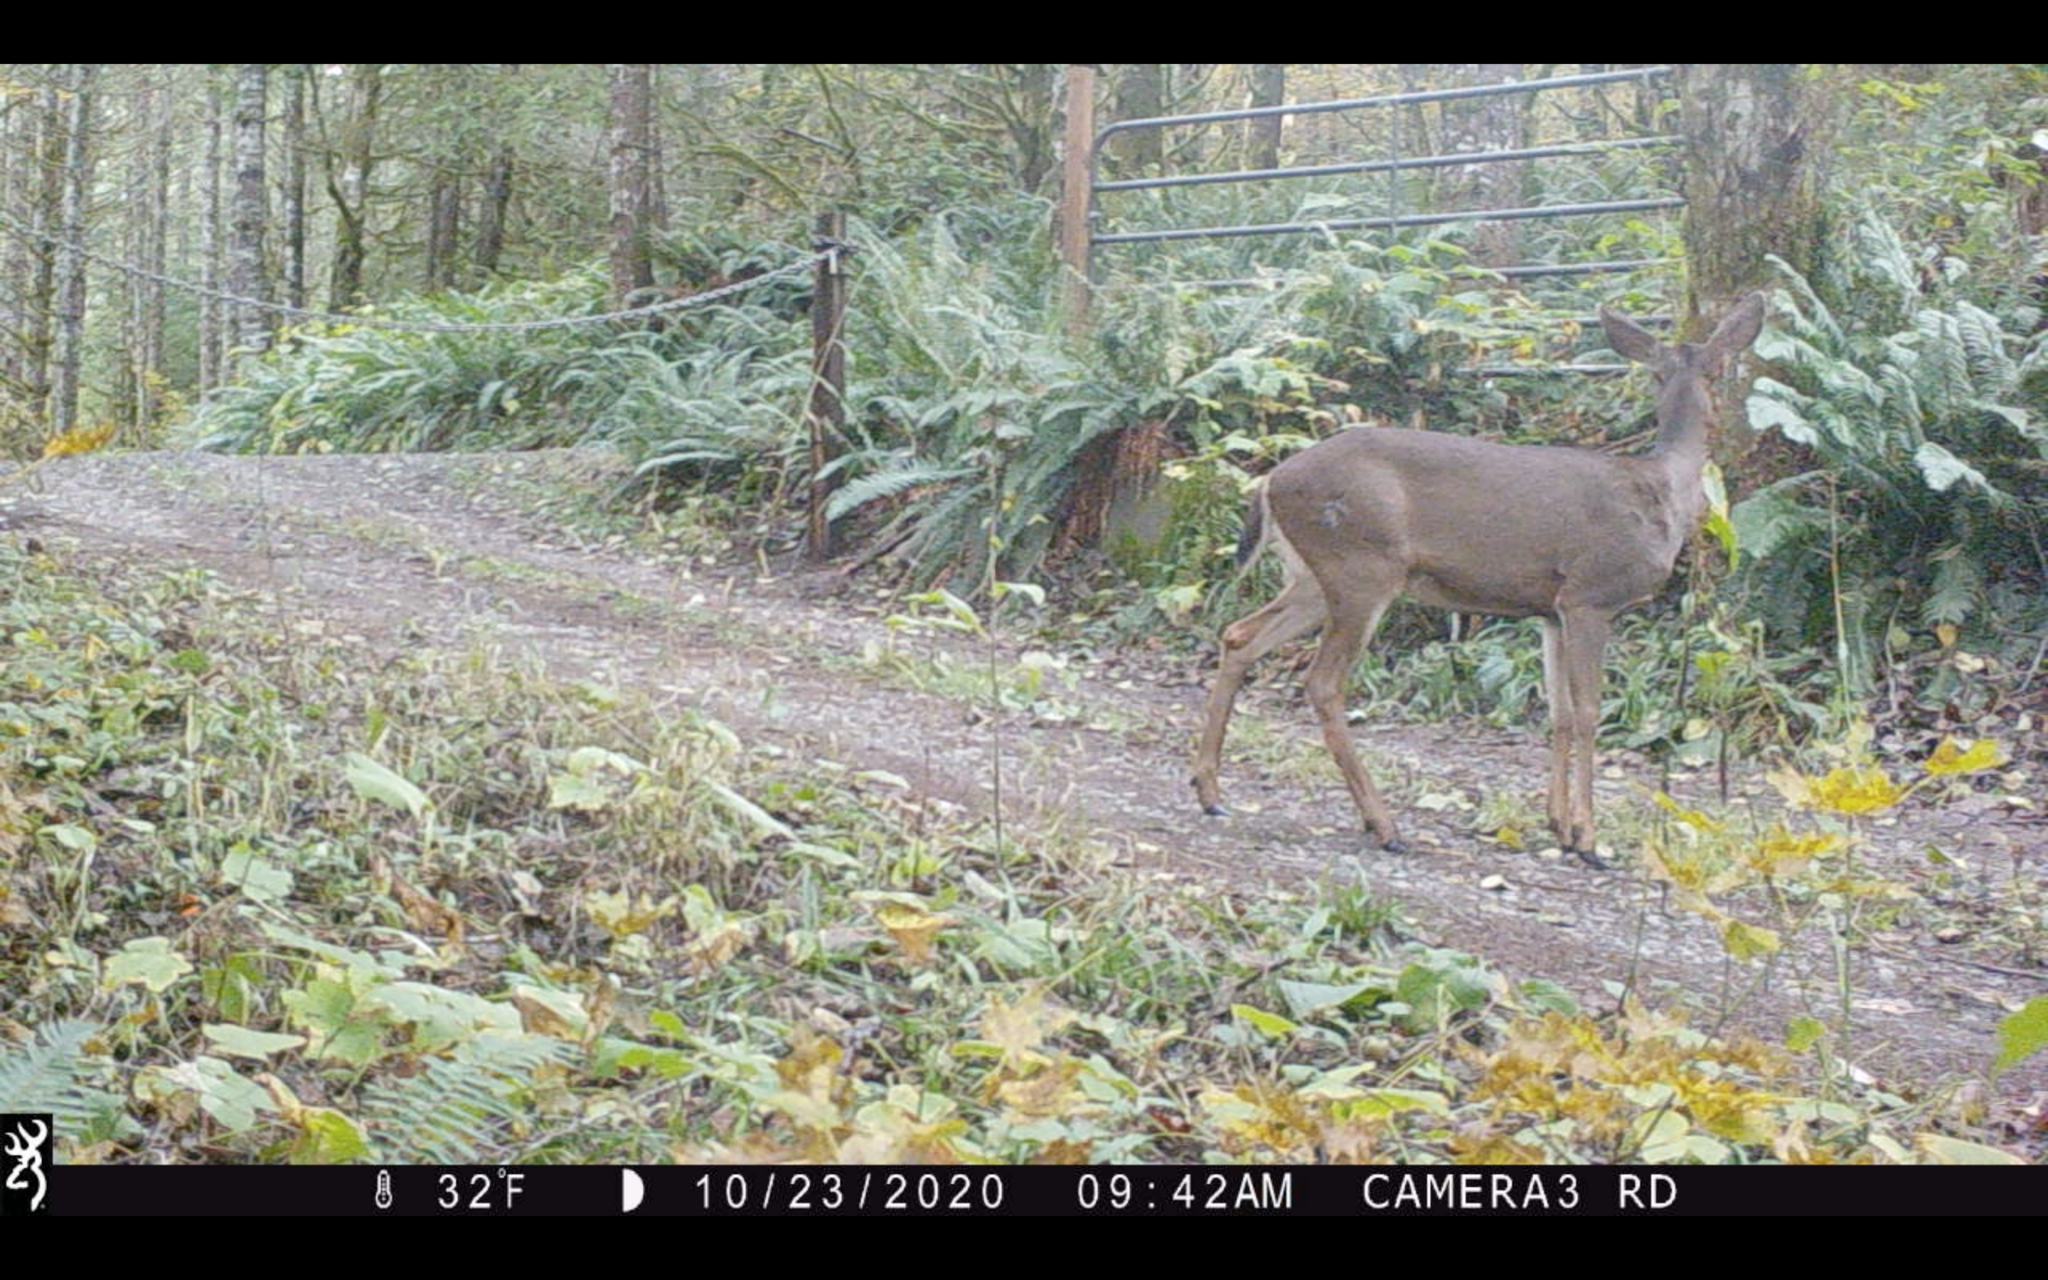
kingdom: Animalia
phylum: Chordata
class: Mammalia
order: Artiodactyla
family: Cervidae
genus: Odocoileus
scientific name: Odocoileus hemionus
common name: Mule deer
